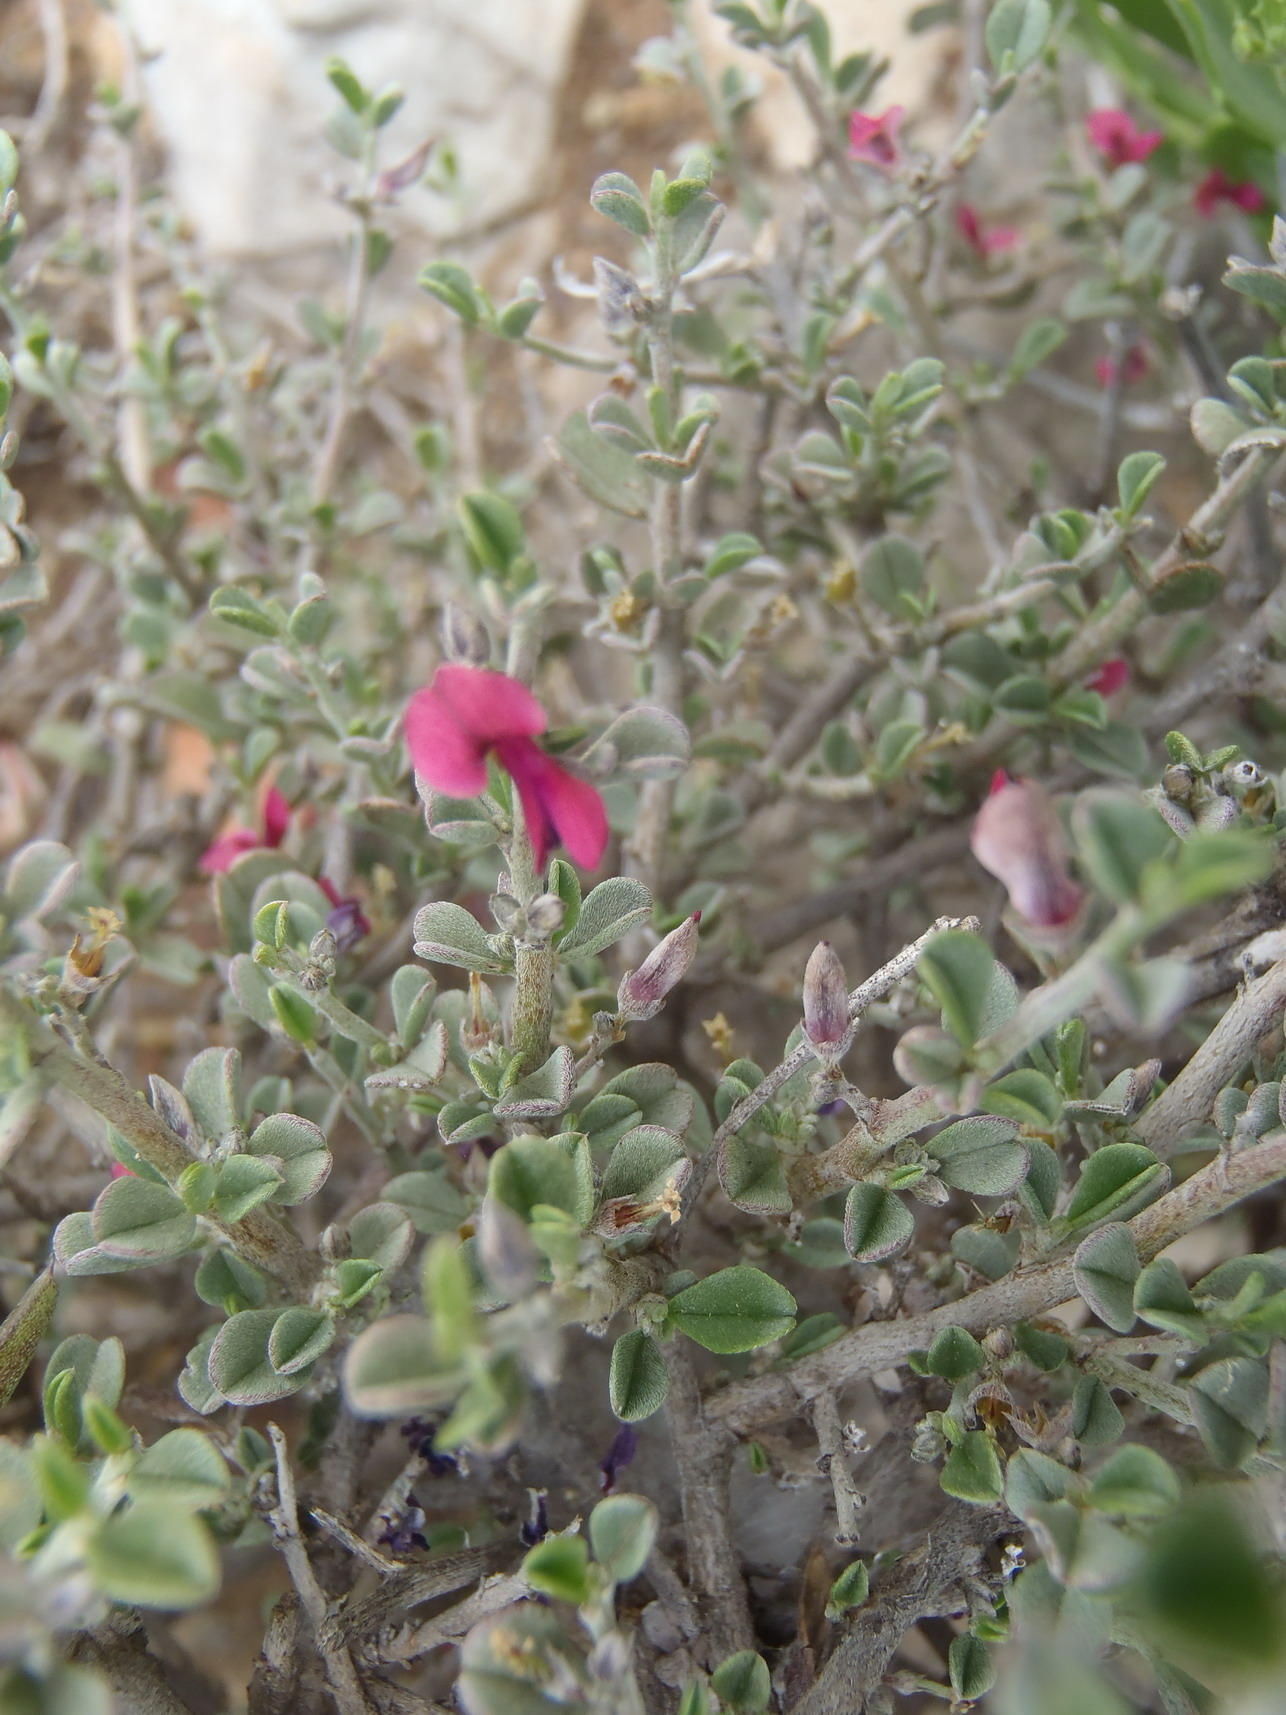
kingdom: Plantae
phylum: Tracheophyta
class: Magnoliopsida
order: Fabales
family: Fabaceae
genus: Indigofera
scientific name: Indigofera obcordata
